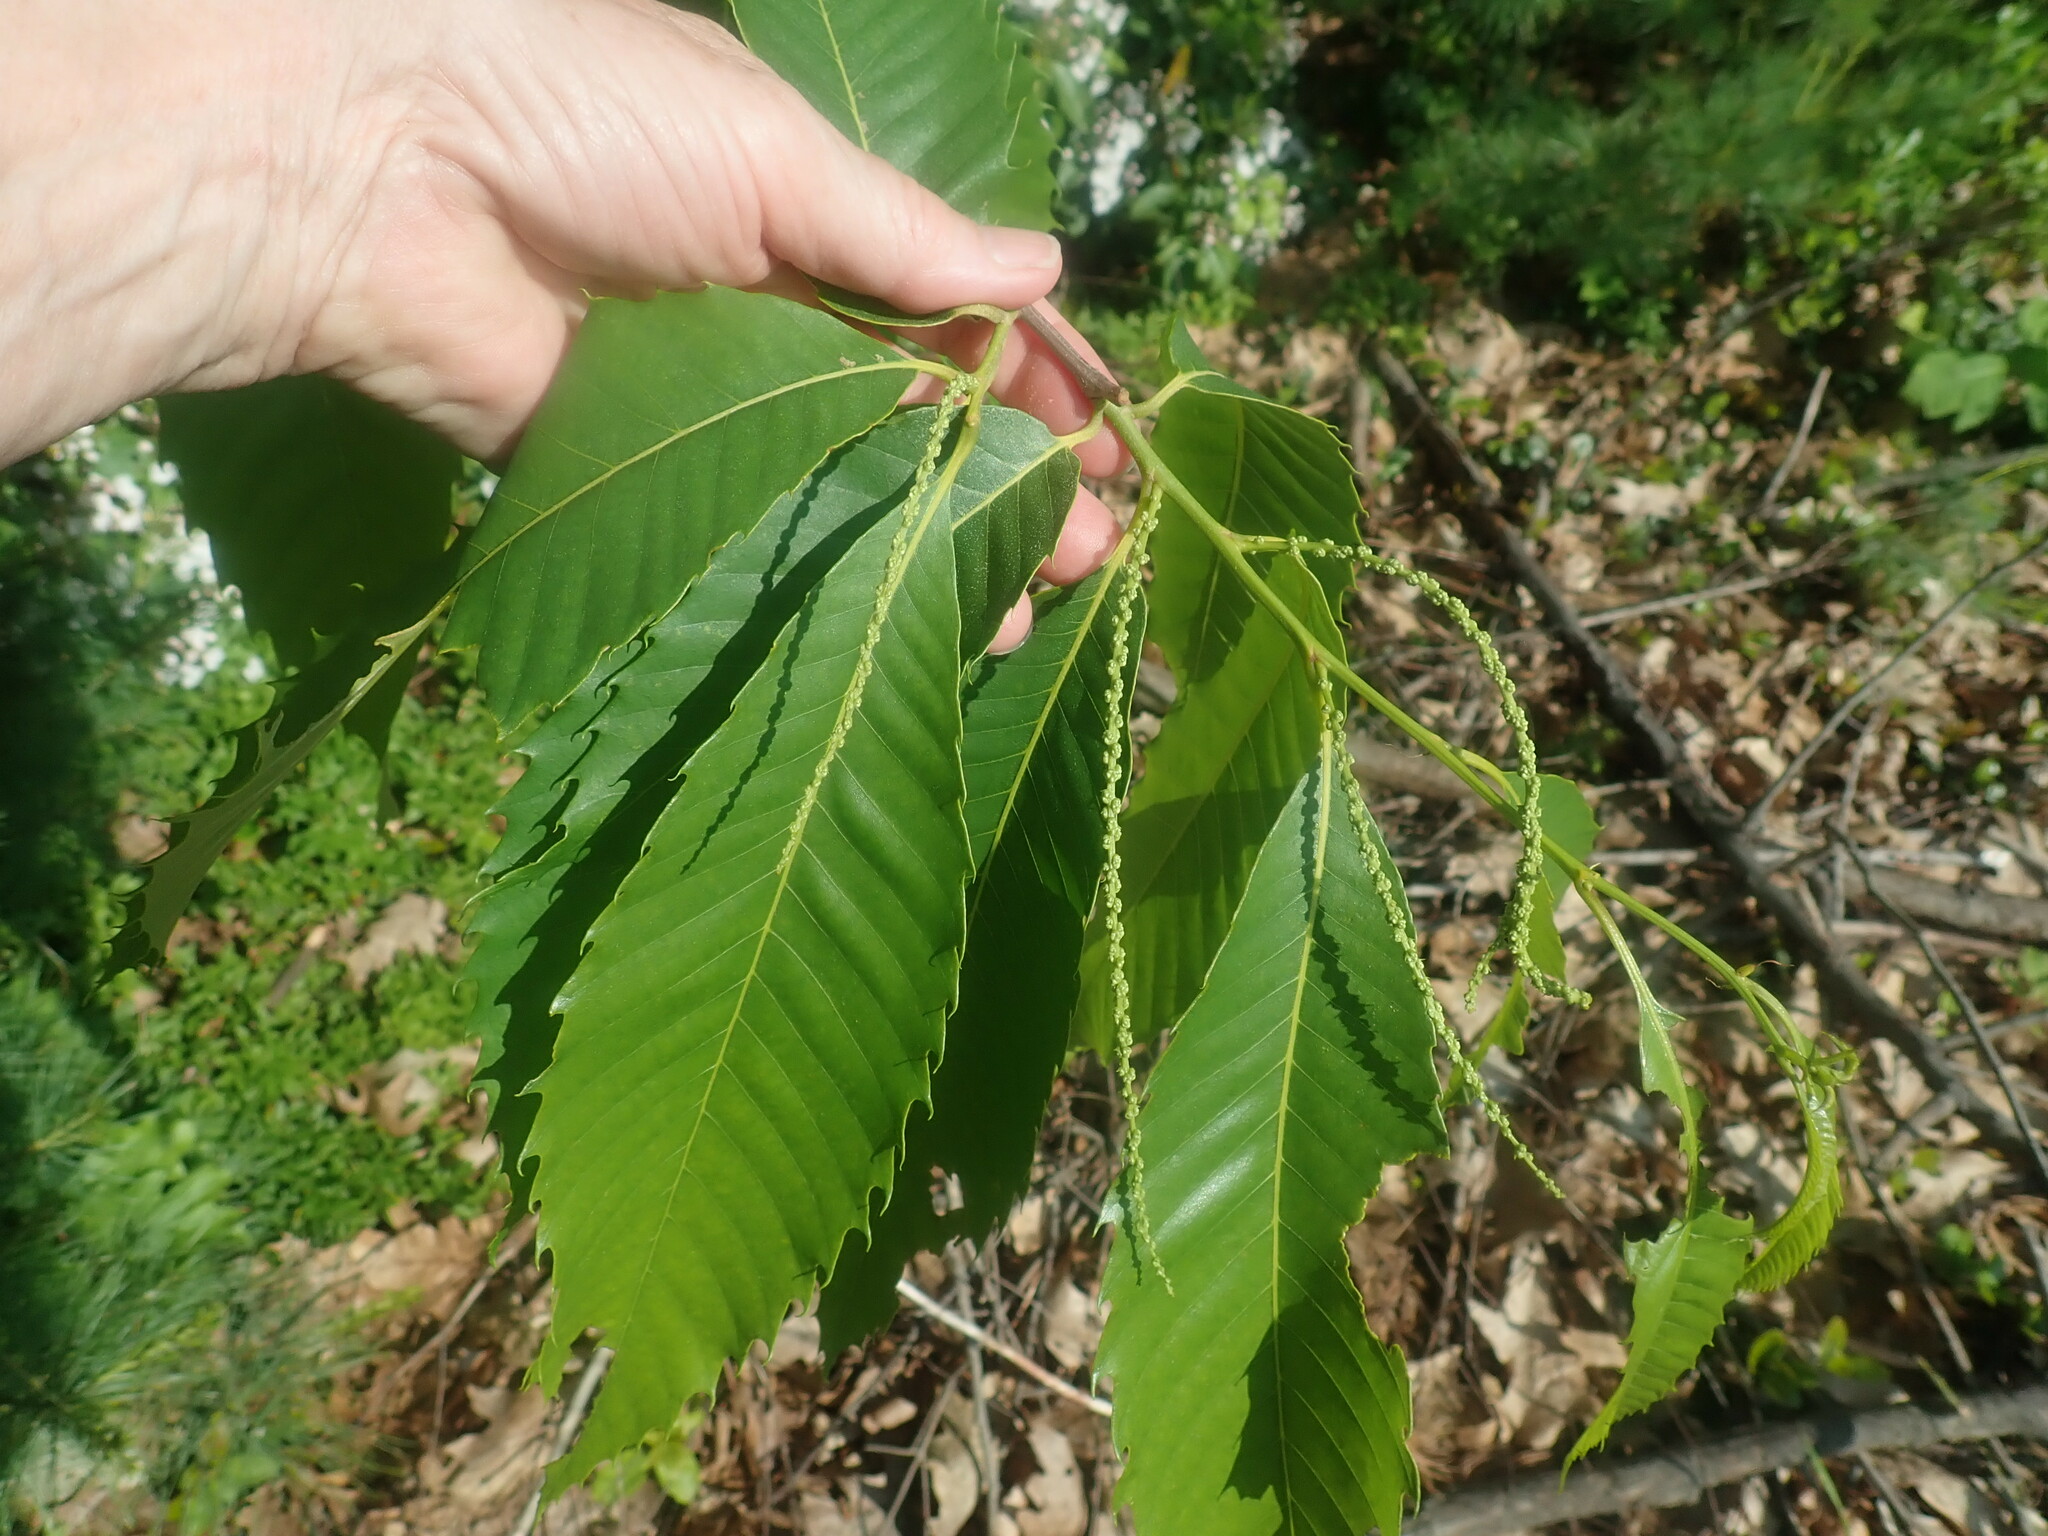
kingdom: Plantae
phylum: Tracheophyta
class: Magnoliopsida
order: Fagales
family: Fagaceae
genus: Castanea
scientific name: Castanea dentata
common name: American chestnut
